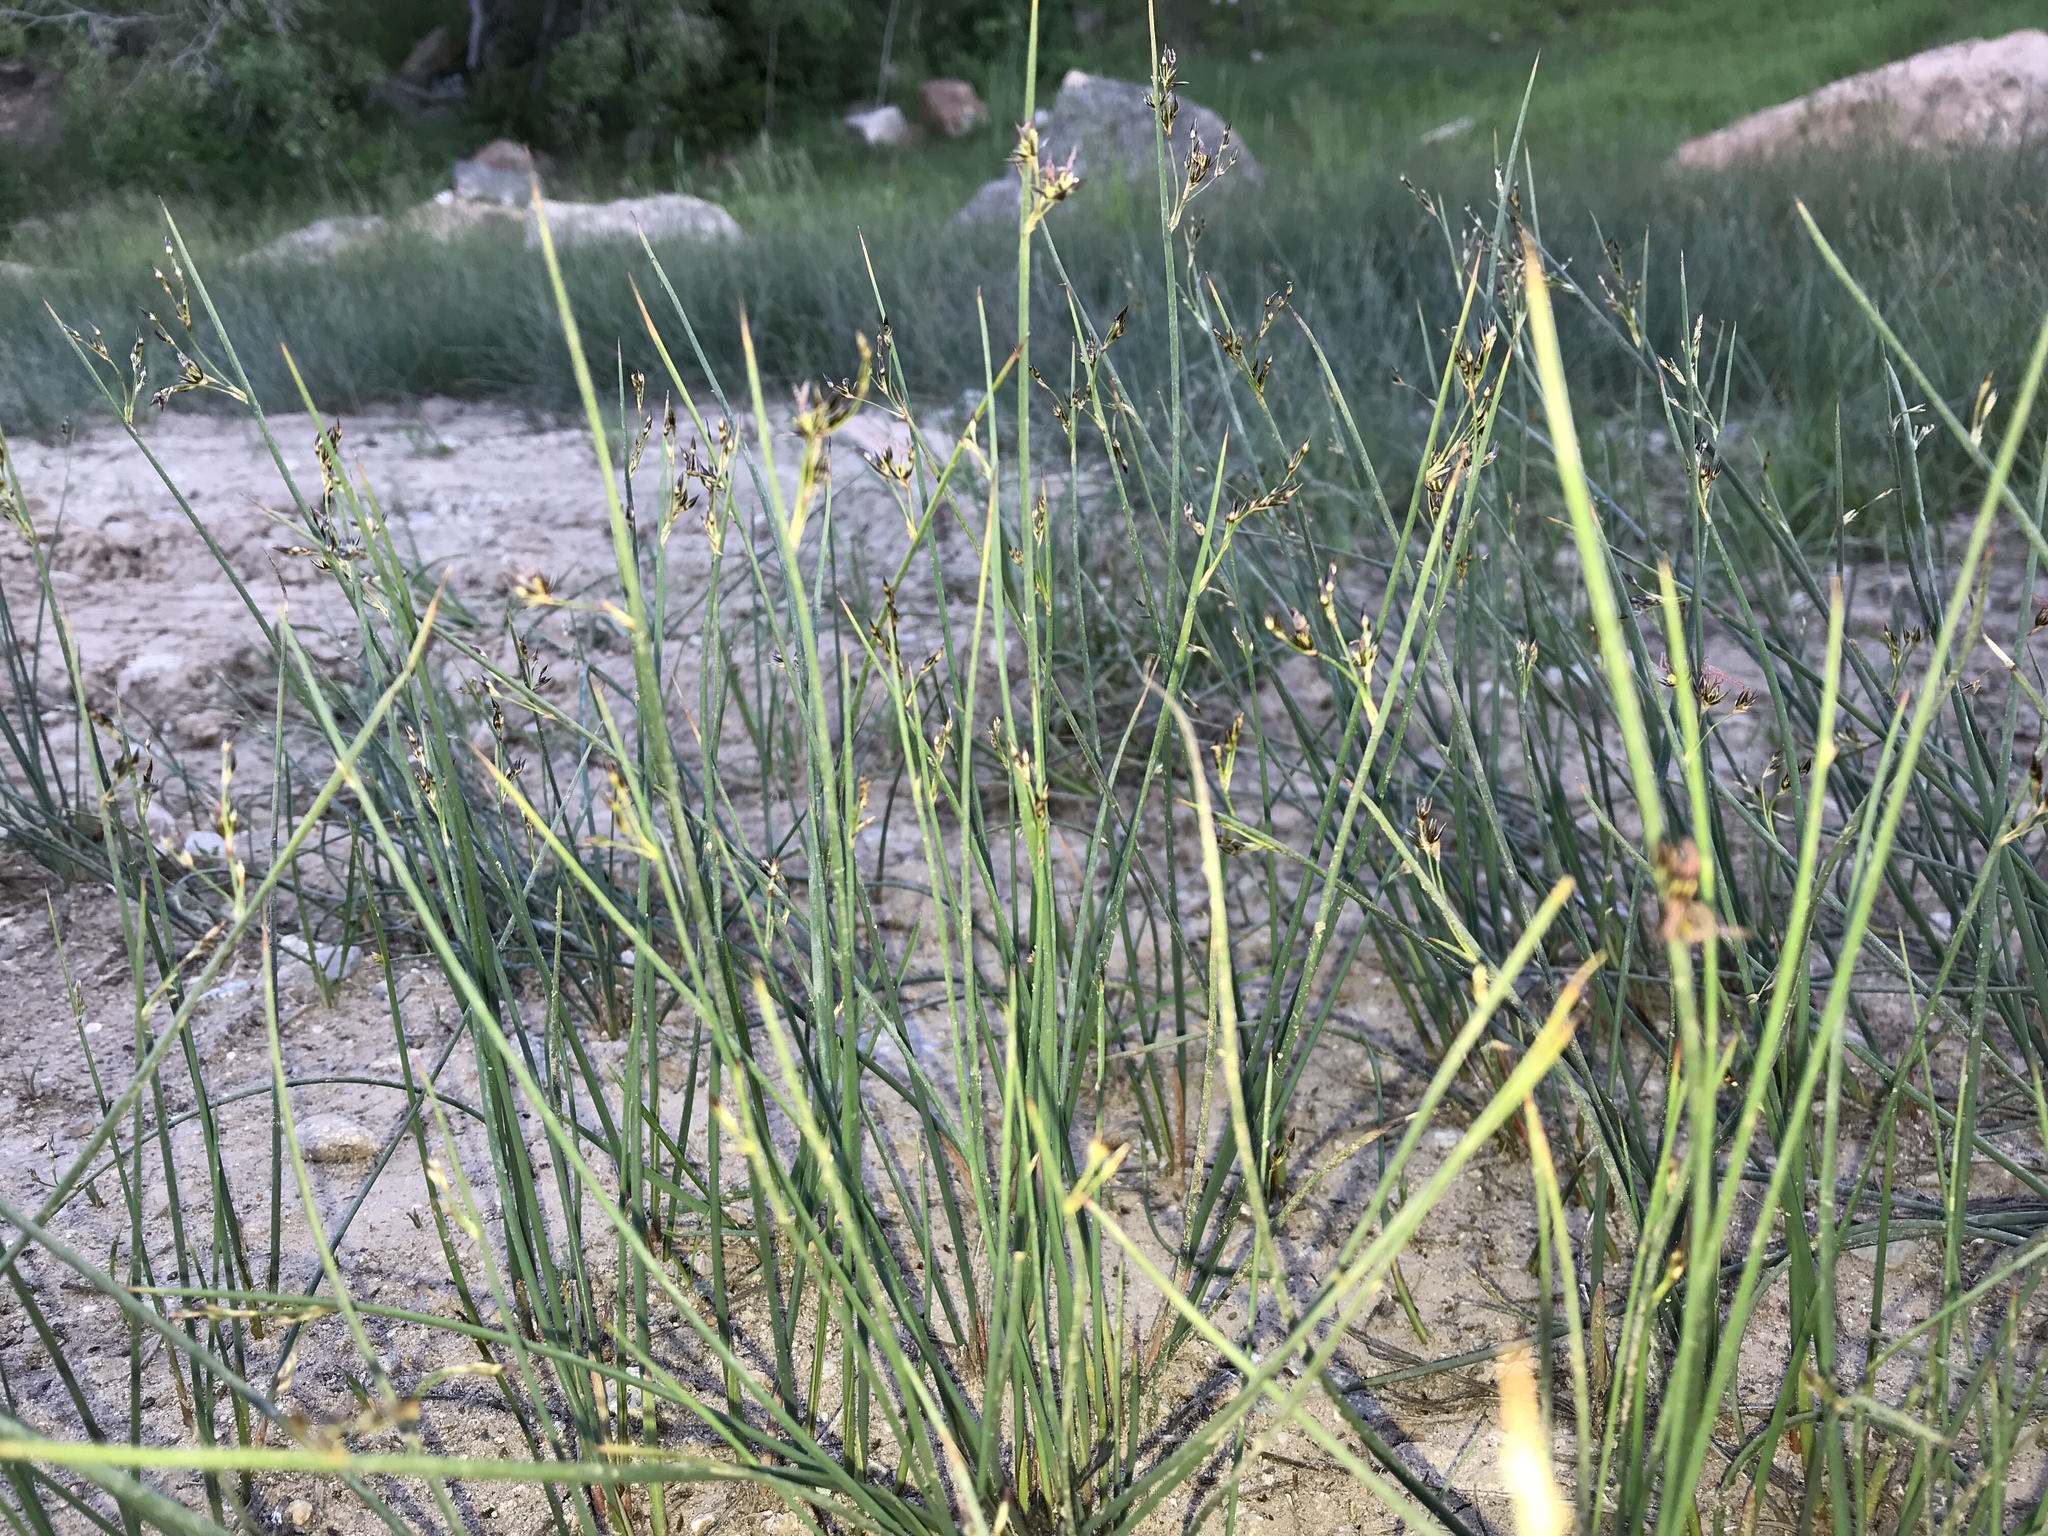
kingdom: Plantae
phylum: Tracheophyta
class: Liliopsida
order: Poales
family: Juncaceae
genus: Juncus
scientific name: Juncus balticus
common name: Baltic rush
